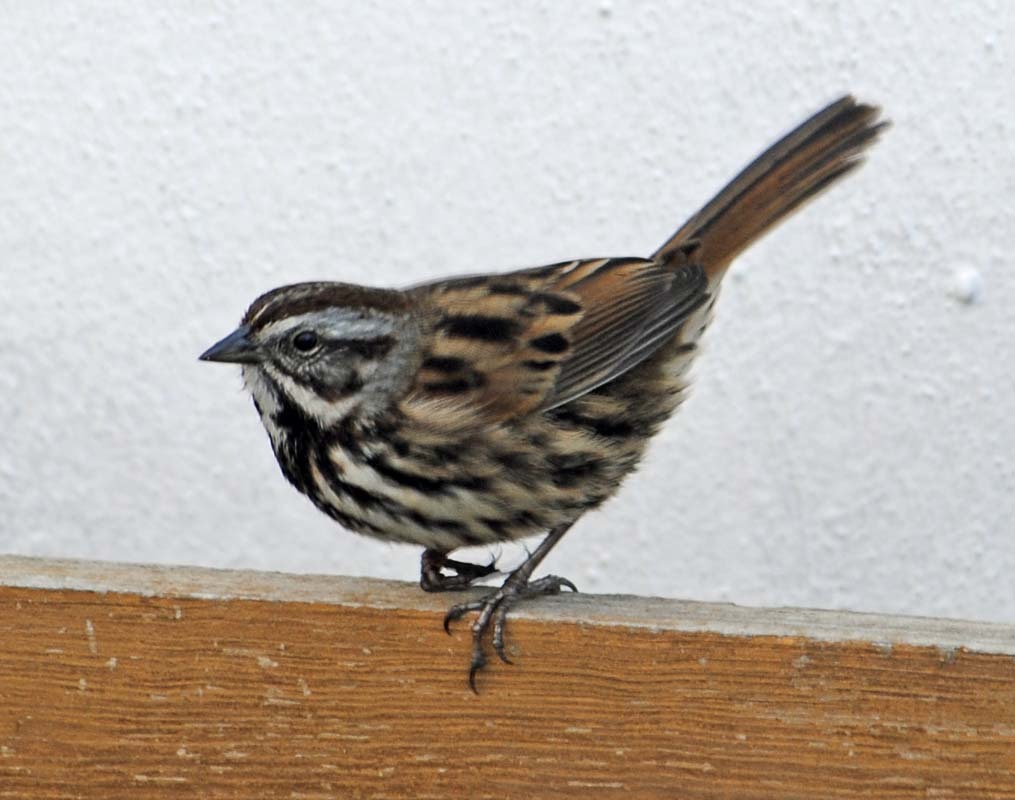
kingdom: Animalia
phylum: Chordata
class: Aves
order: Passeriformes
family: Passerellidae
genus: Melospiza
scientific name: Melospiza melodia
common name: Song sparrow
